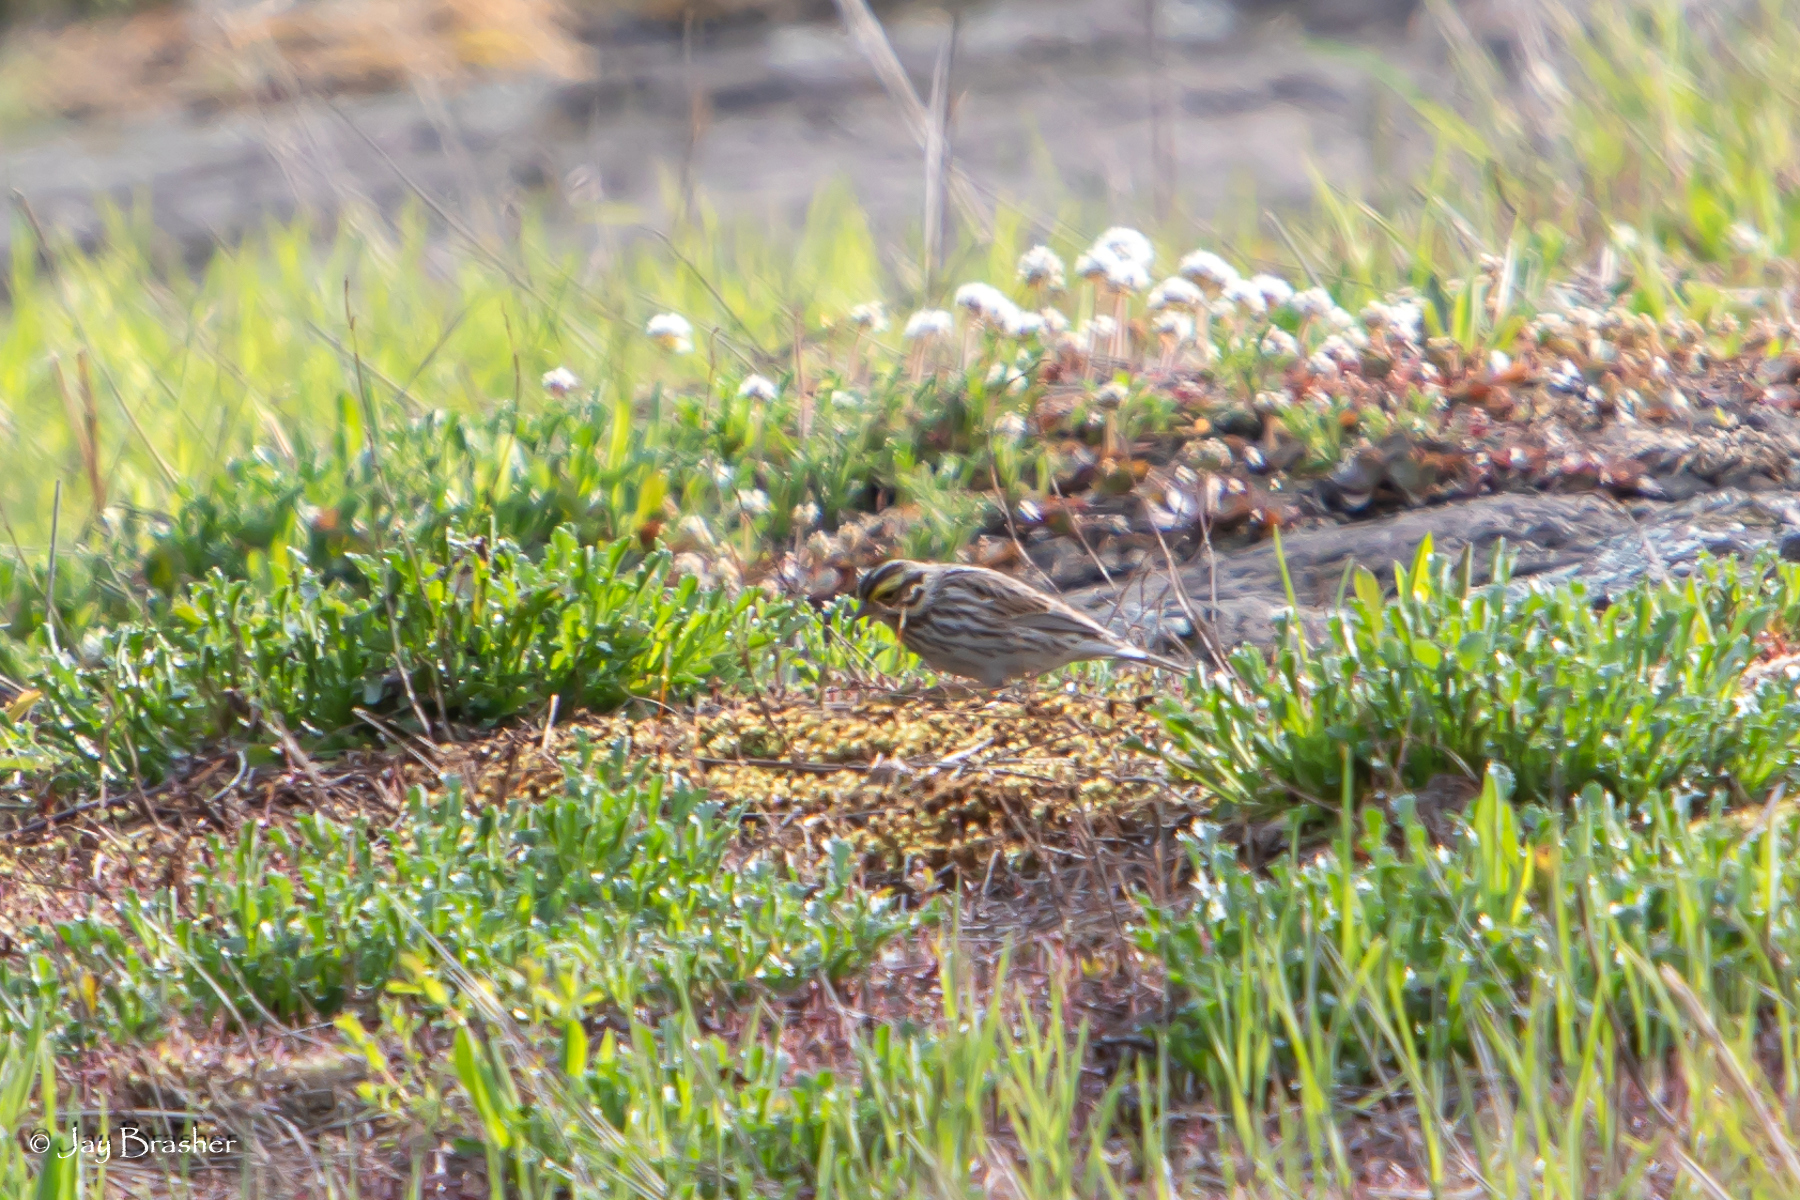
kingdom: Animalia
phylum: Chordata
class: Aves
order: Passeriformes
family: Passerellidae
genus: Passerculus
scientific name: Passerculus sandwichensis
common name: Savannah sparrow
